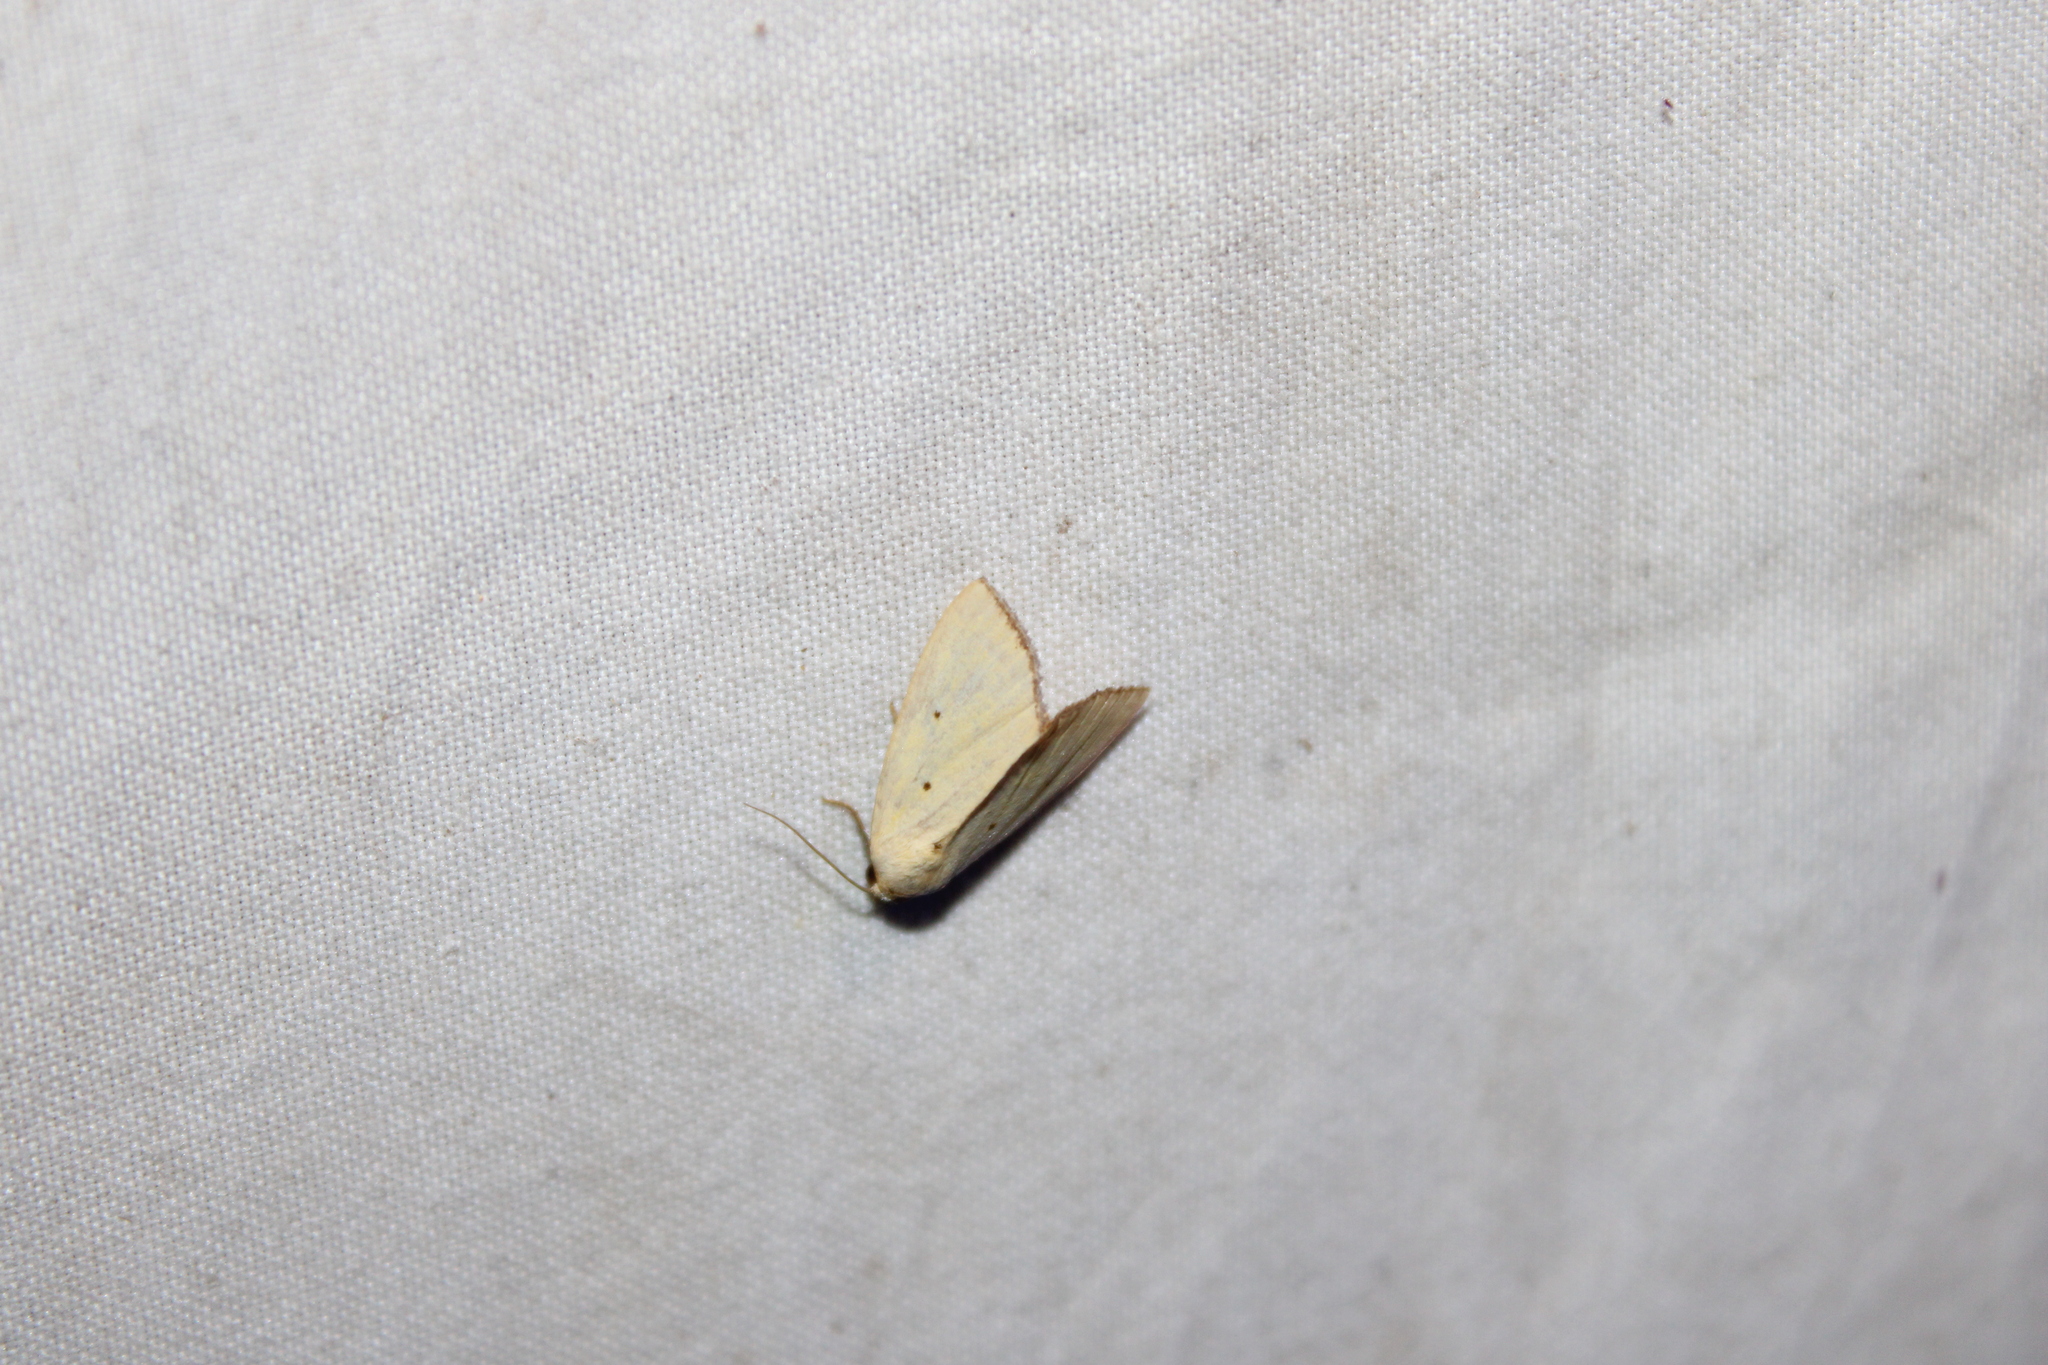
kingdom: Animalia
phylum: Arthropoda
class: Insecta
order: Lepidoptera
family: Noctuidae
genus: Marimatha
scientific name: Marimatha nigrofimbria
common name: Black-bordered lemon moth
